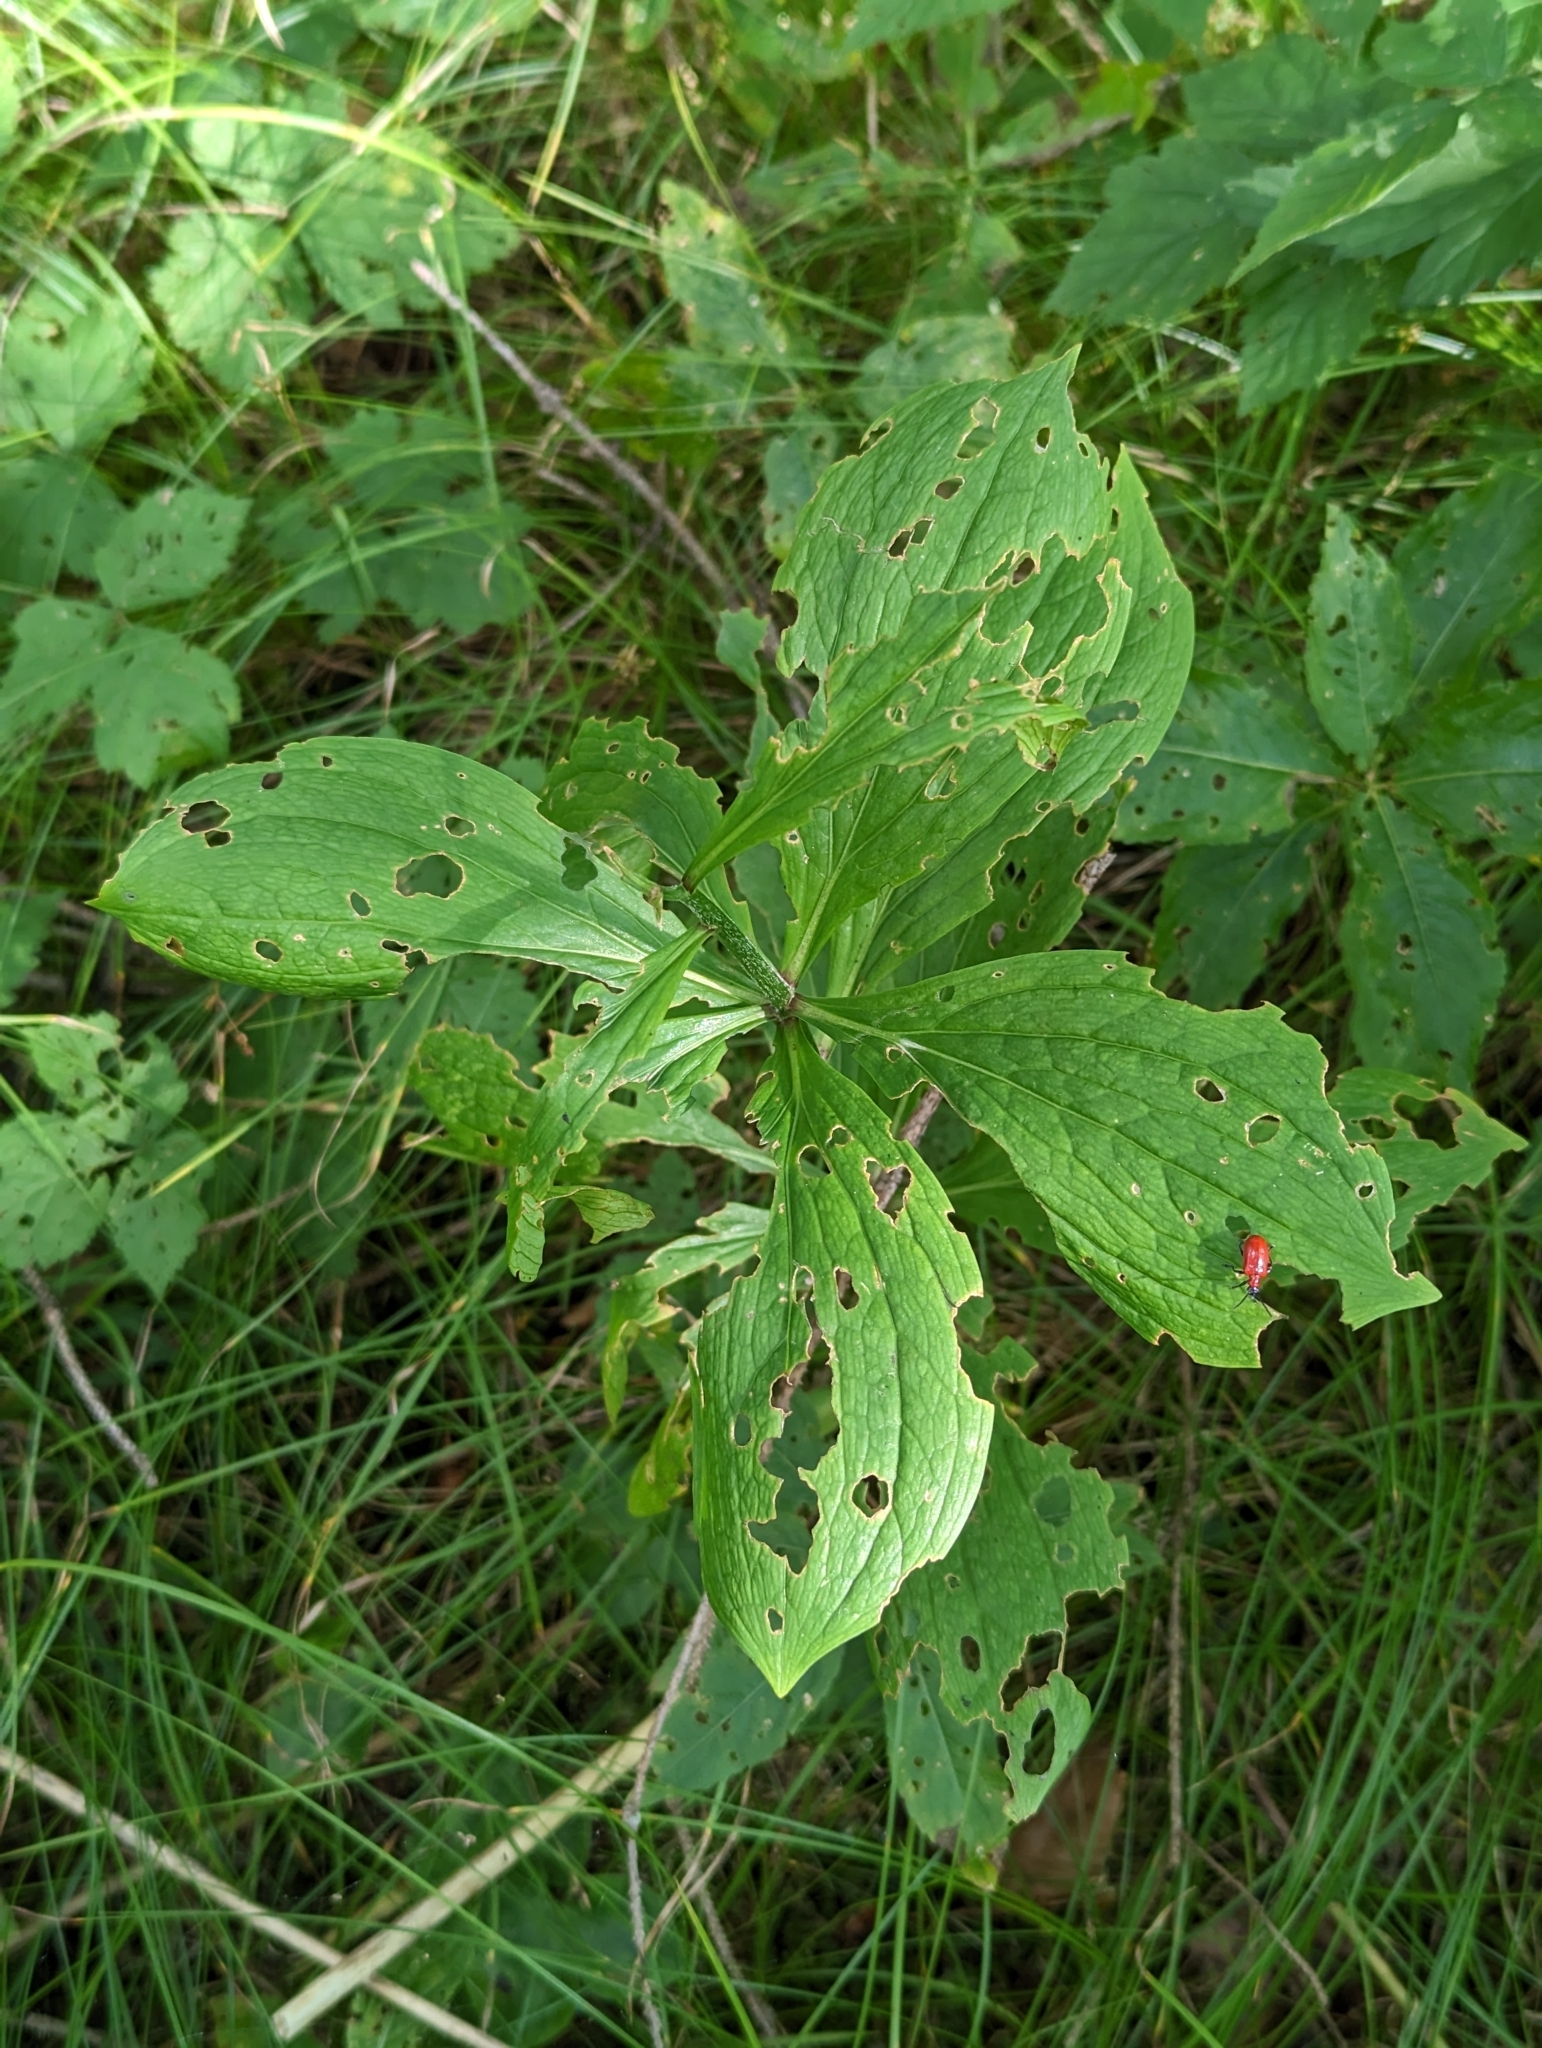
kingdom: Animalia
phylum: Arthropoda
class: Insecta
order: Coleoptera
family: Chrysomelidae
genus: Lilioceris
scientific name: Lilioceris lilii
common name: Lily beetle
